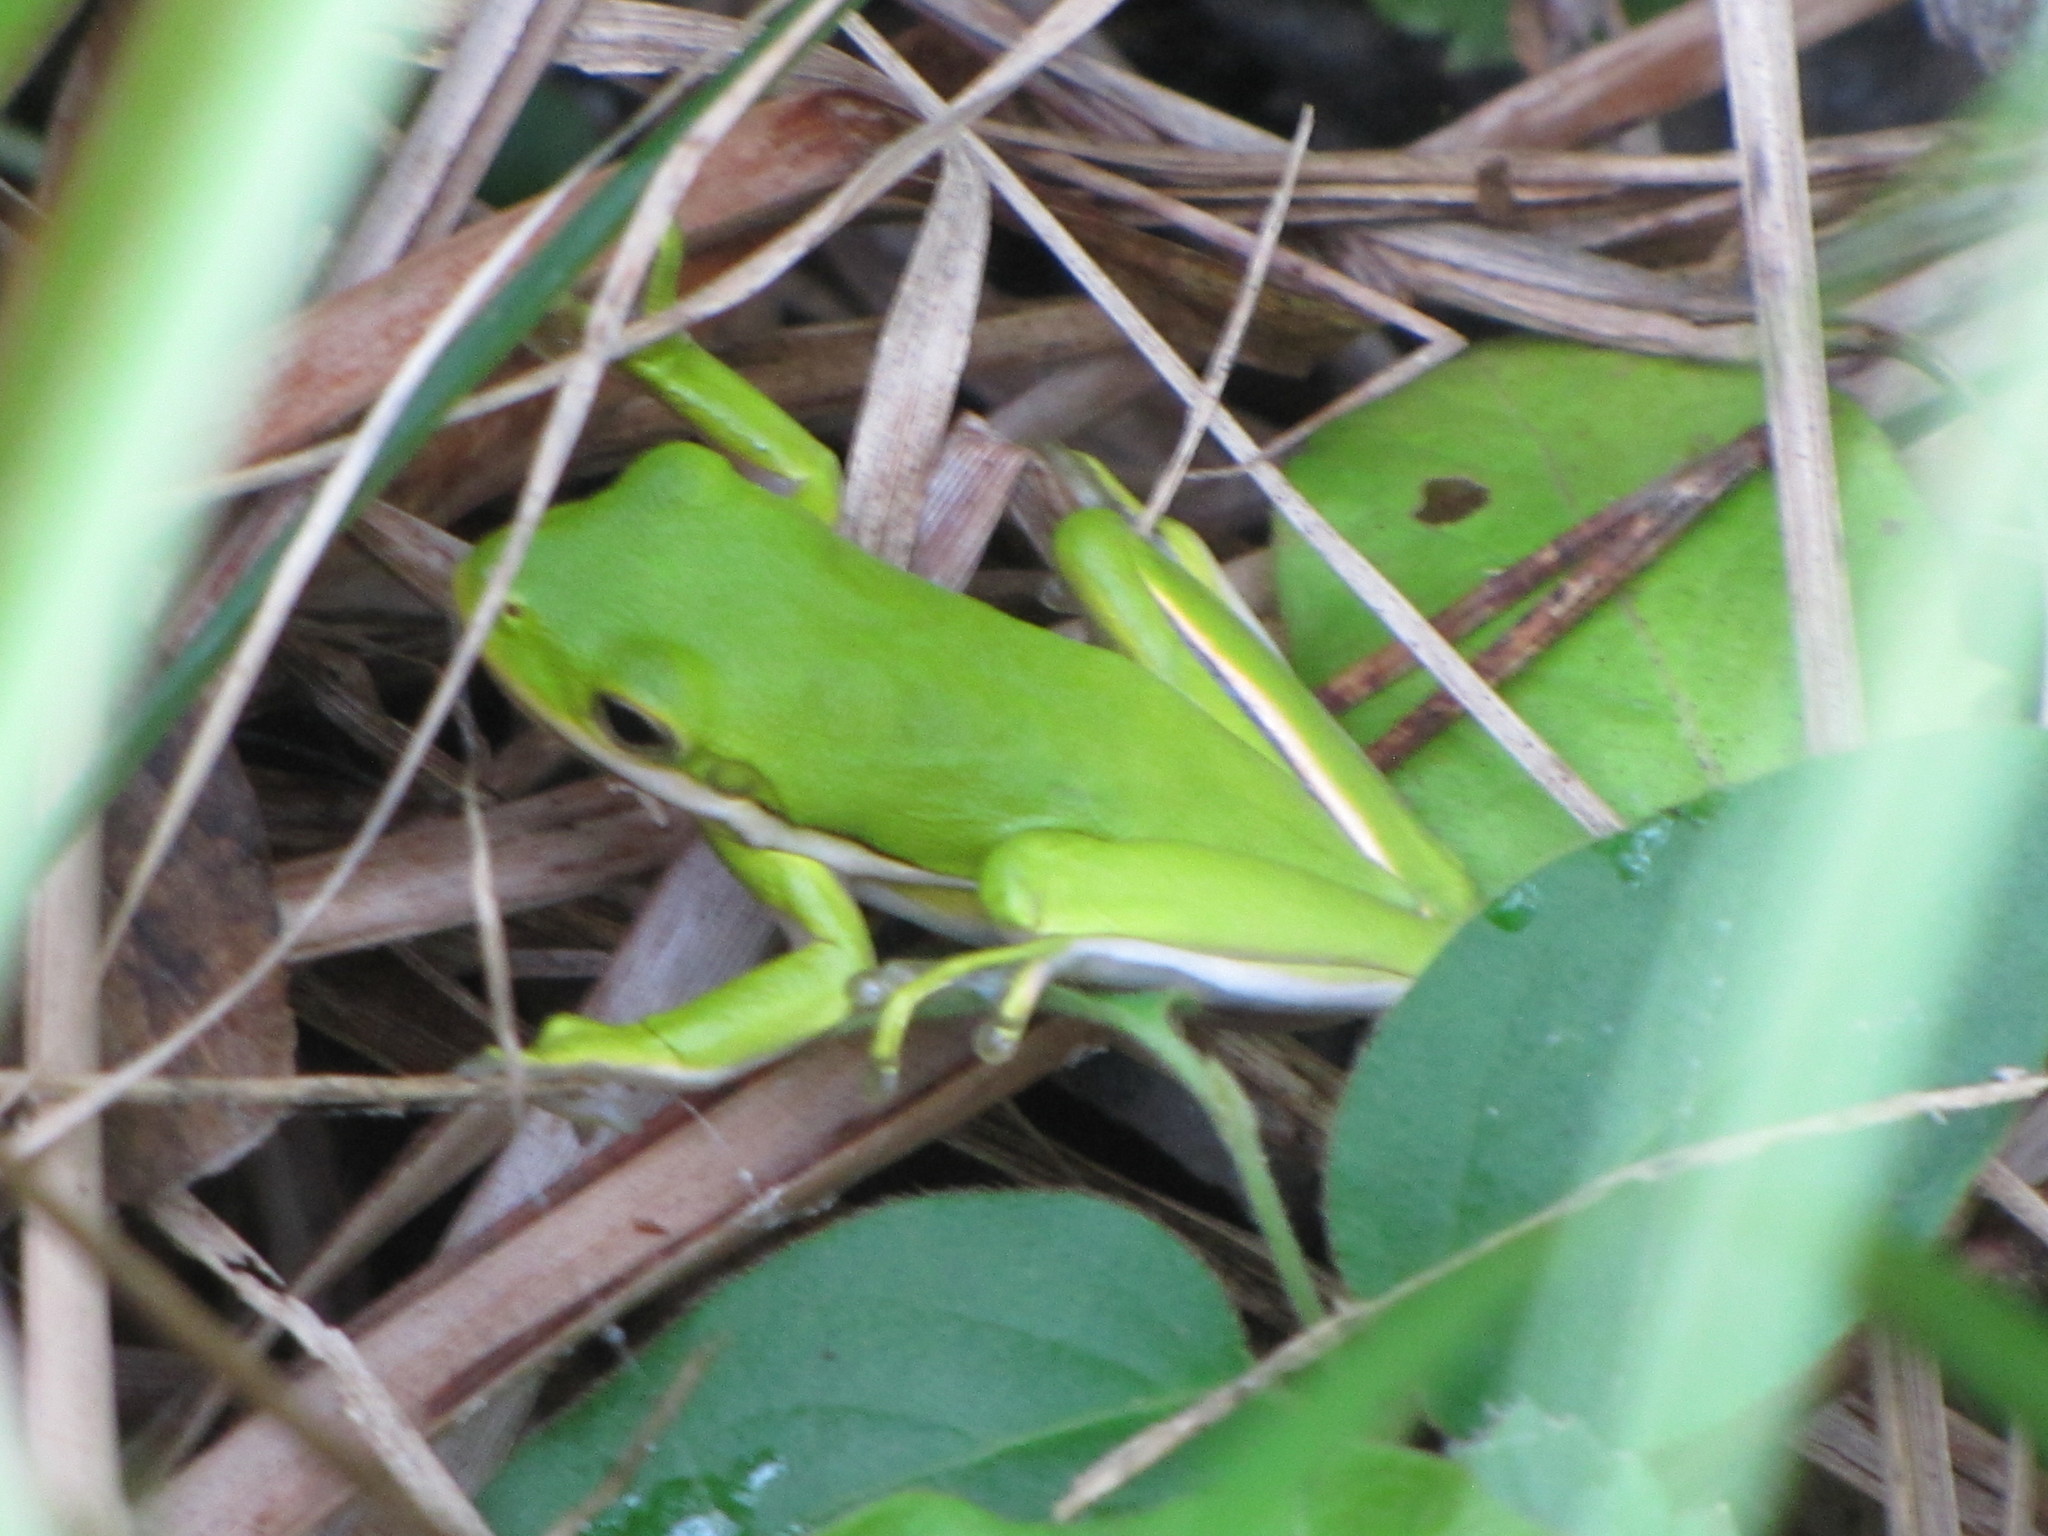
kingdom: Animalia
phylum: Chordata
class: Amphibia
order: Anura
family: Hylidae
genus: Dryophytes
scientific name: Dryophytes cinereus
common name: Green treefrog
